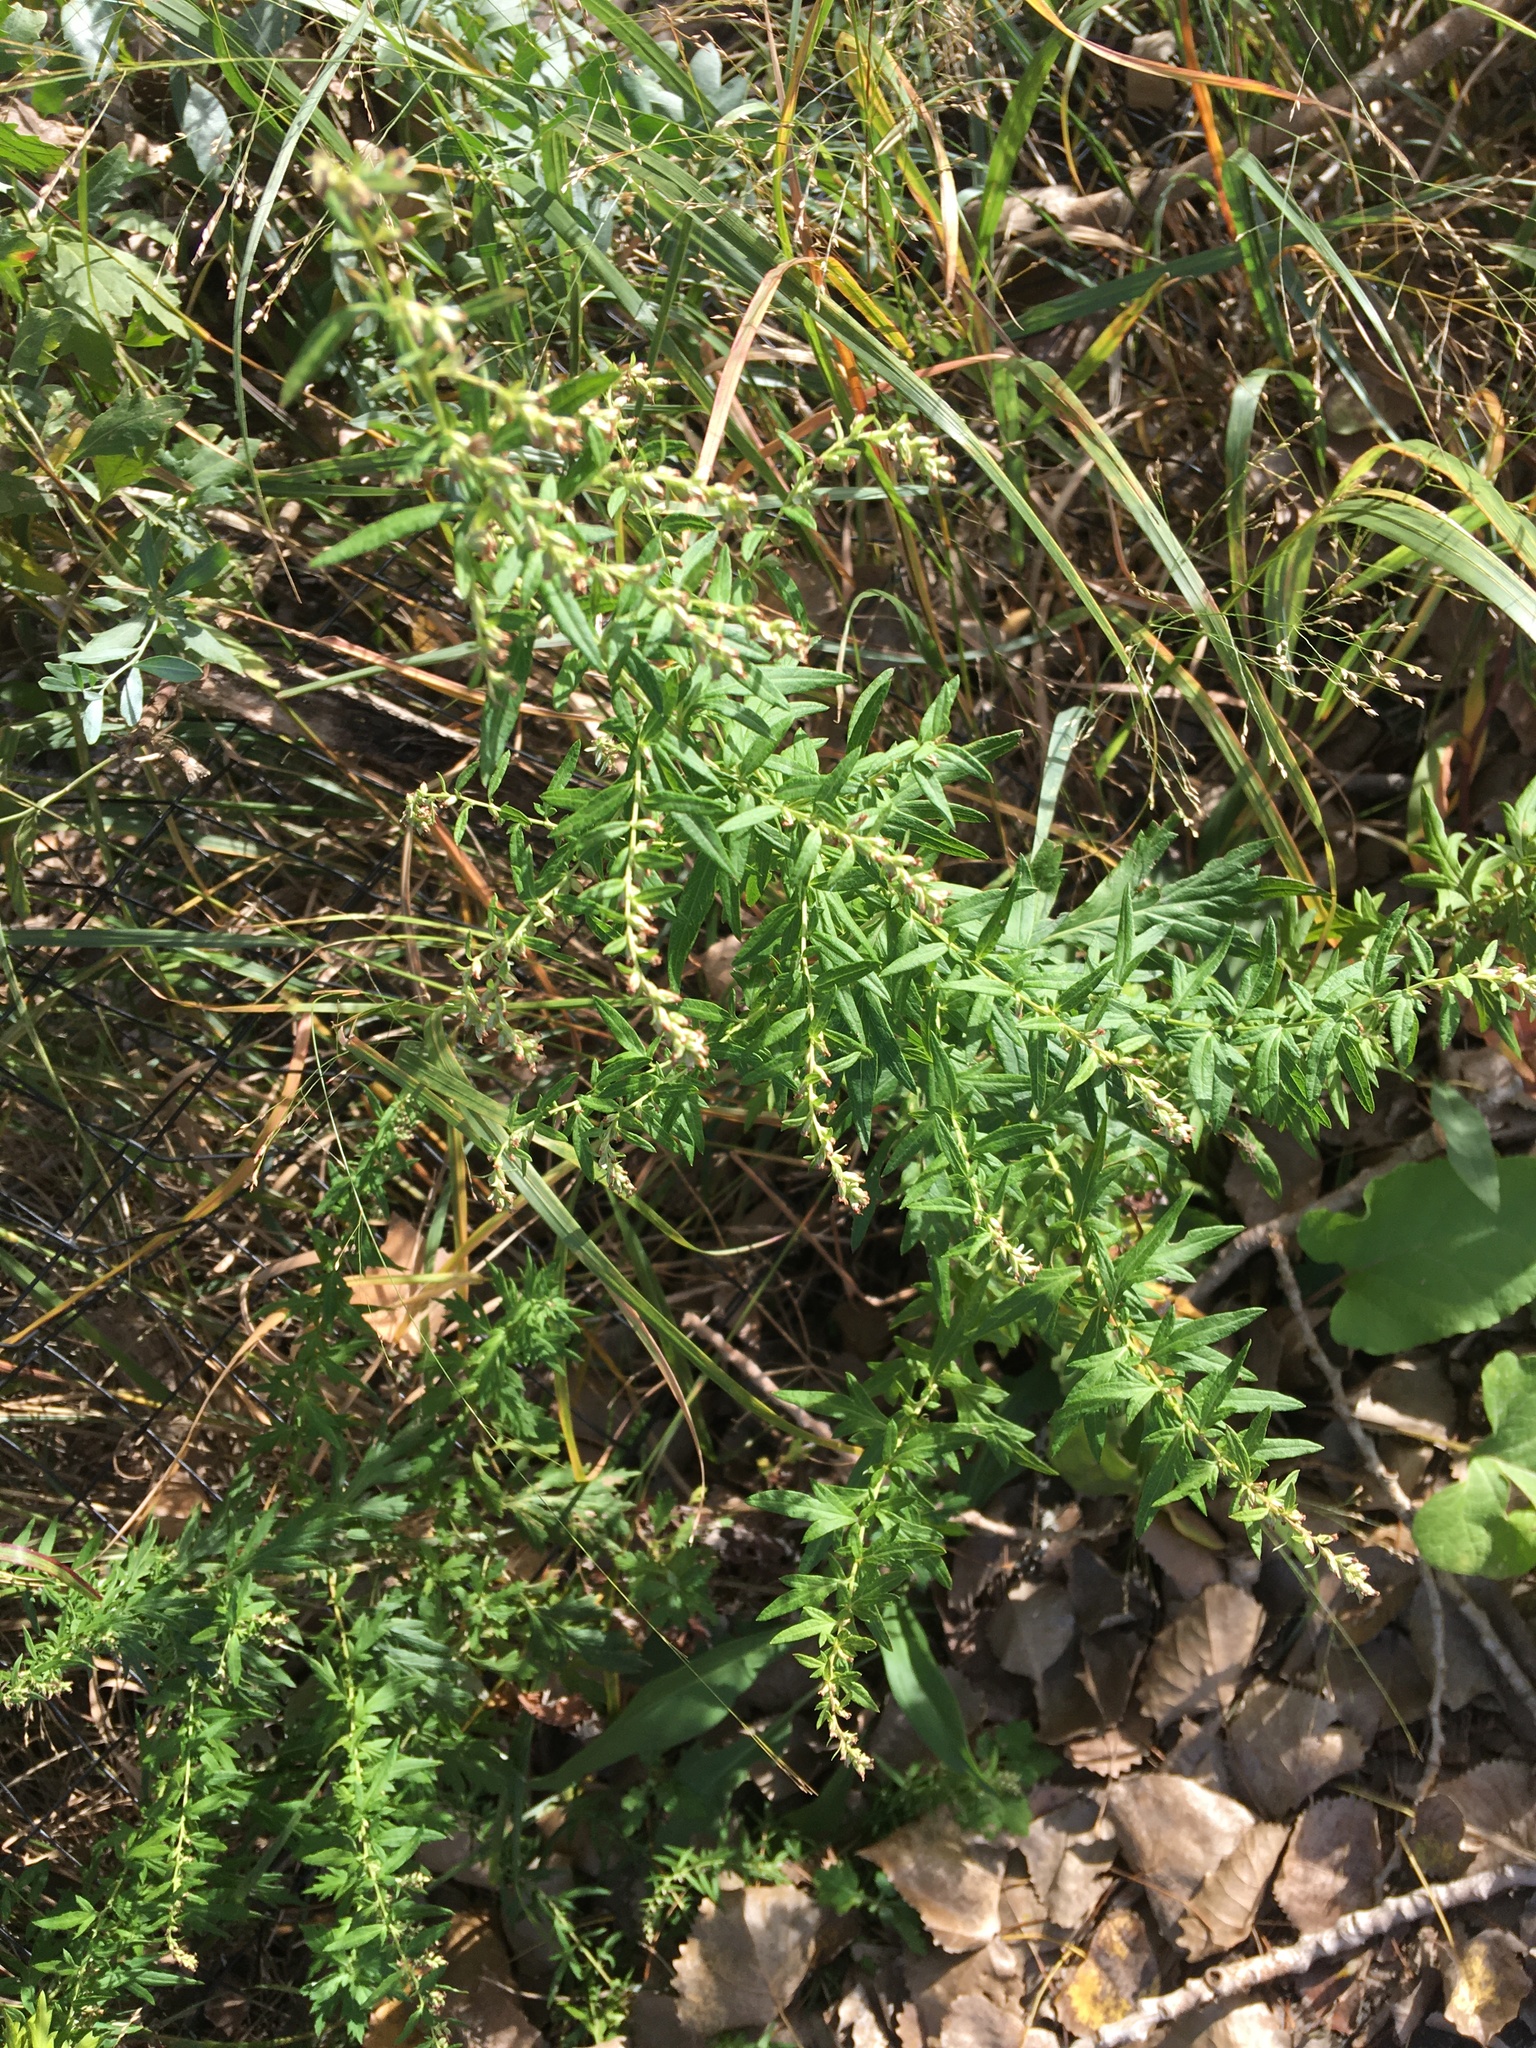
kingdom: Plantae
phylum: Tracheophyta
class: Magnoliopsida
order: Asterales
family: Asteraceae
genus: Artemisia
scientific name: Artemisia vulgaris
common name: Mugwort
